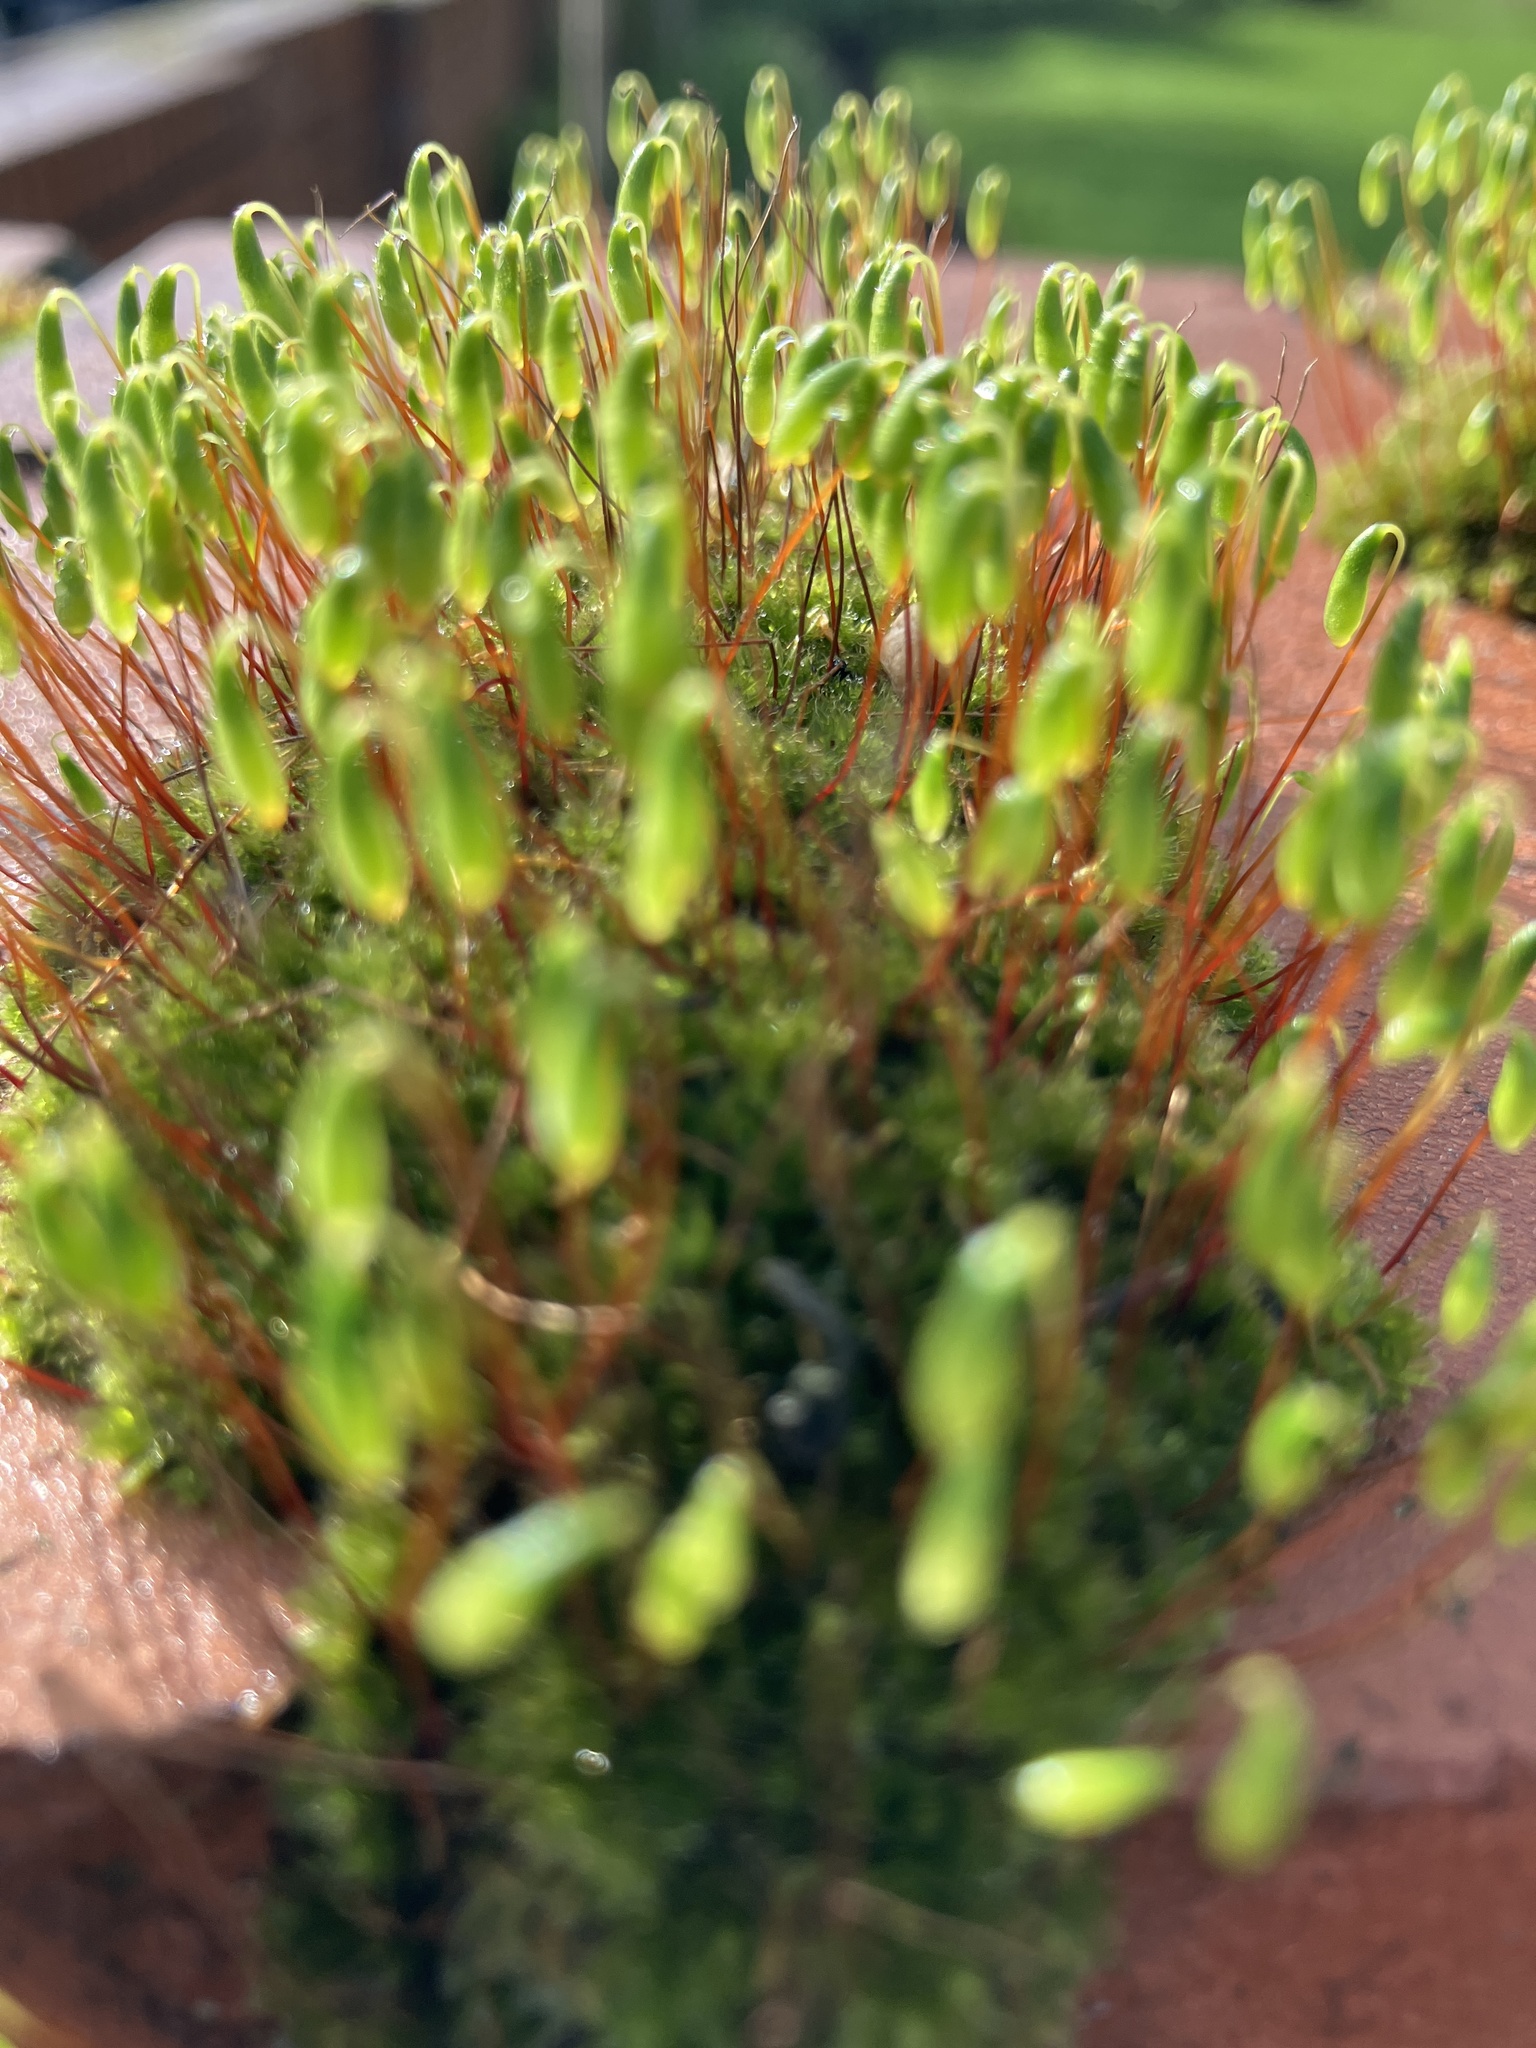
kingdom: Plantae
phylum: Bryophyta
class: Bryopsida
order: Bryales
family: Bryaceae
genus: Rosulabryum
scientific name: Rosulabryum capillare
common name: Capillary thread-moss
